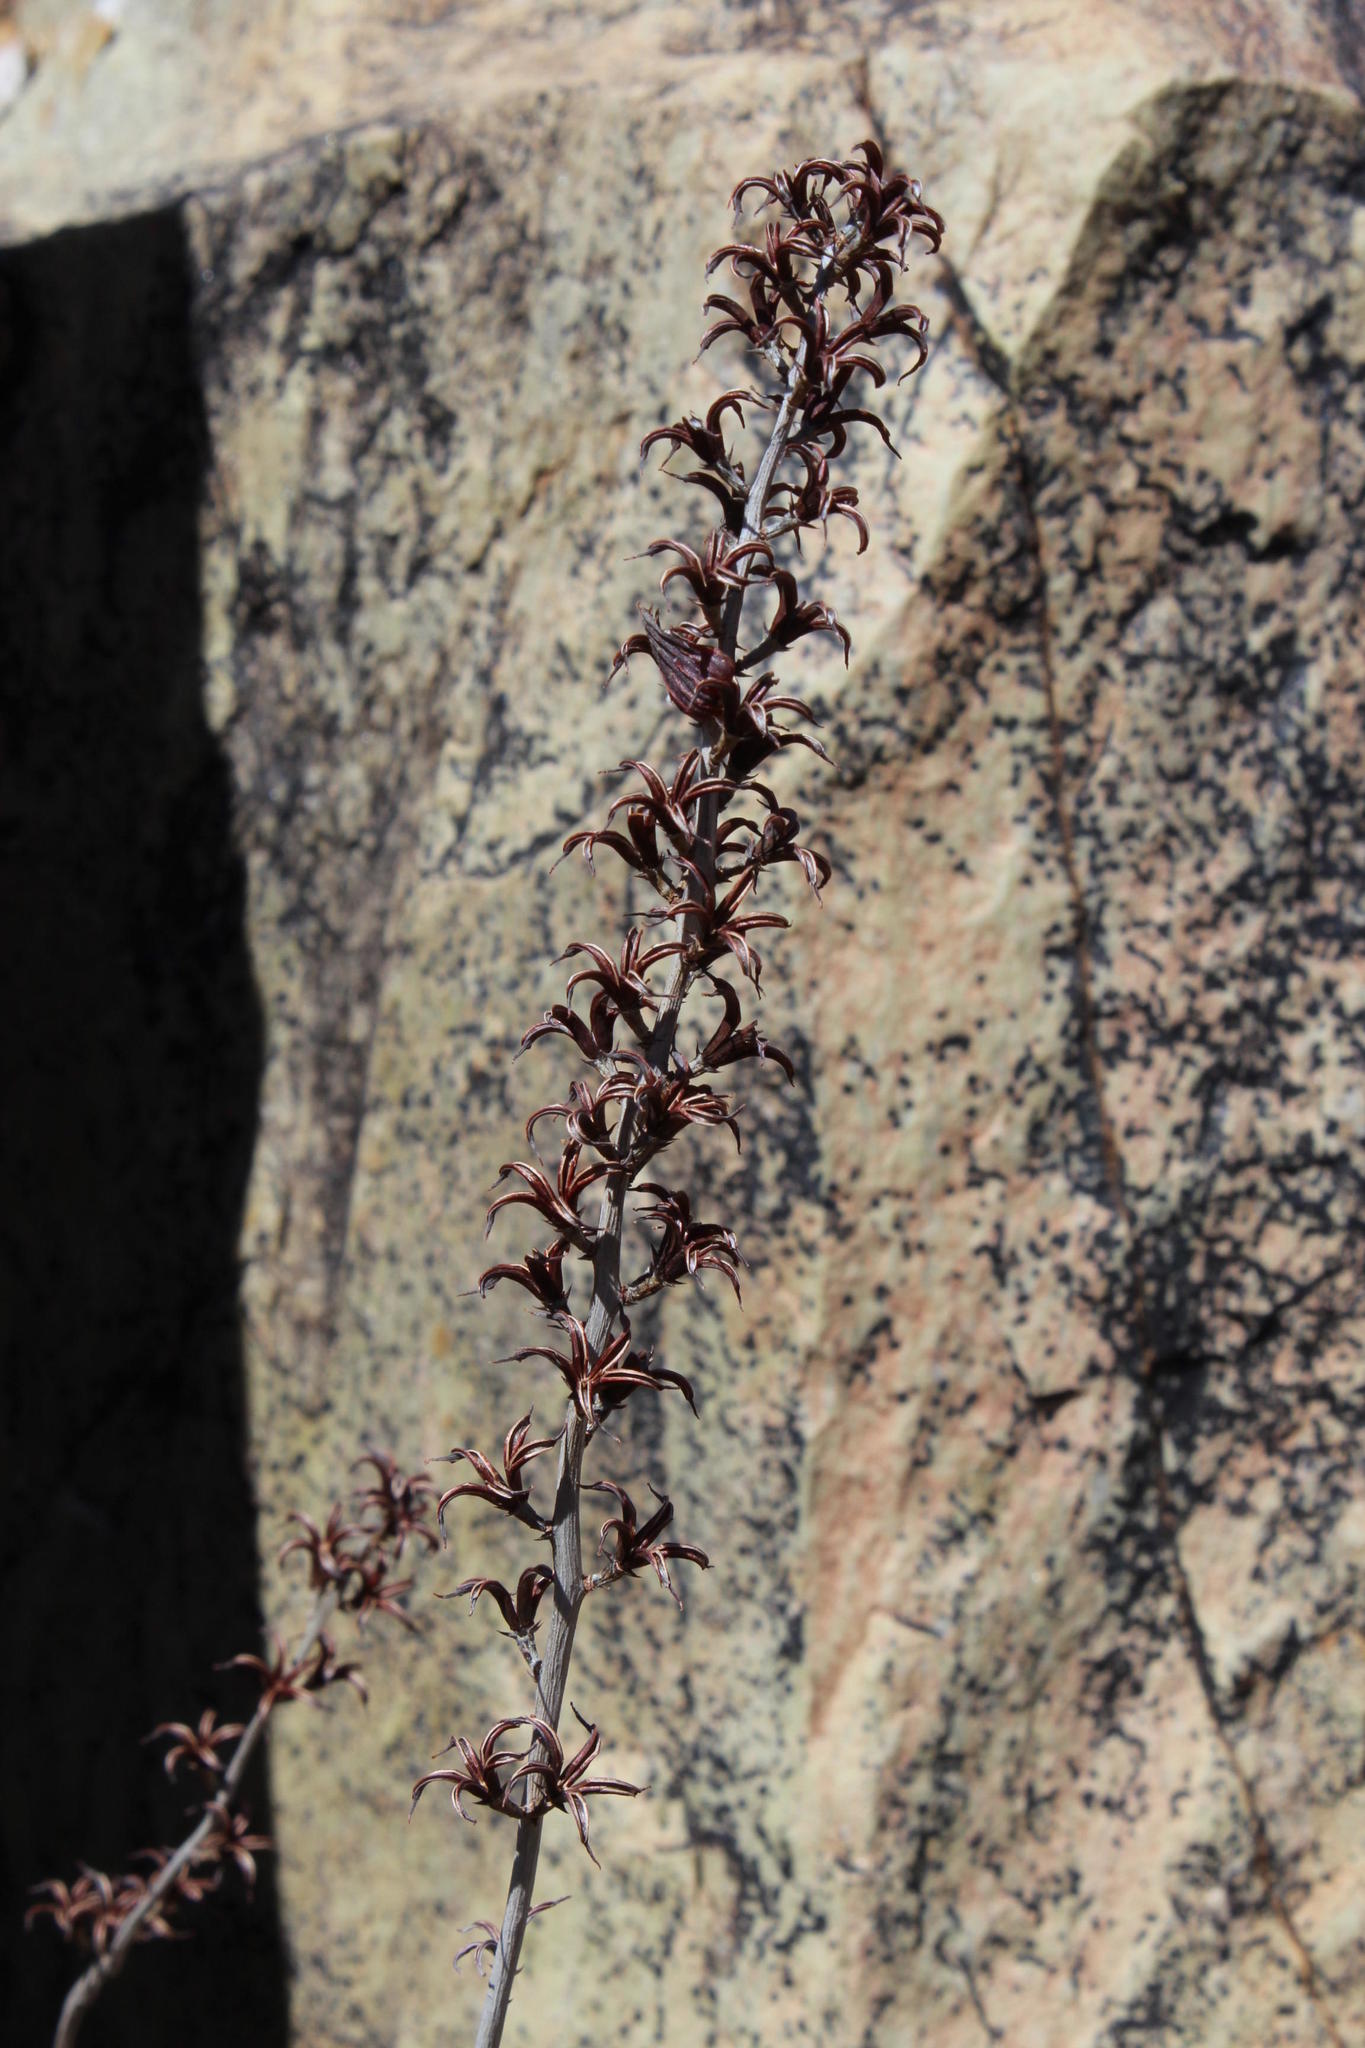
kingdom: Plantae
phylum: Tracheophyta
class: Magnoliopsida
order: Saxifragales
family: Crassulaceae
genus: Adromischus
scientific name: Adromischus alstonii
